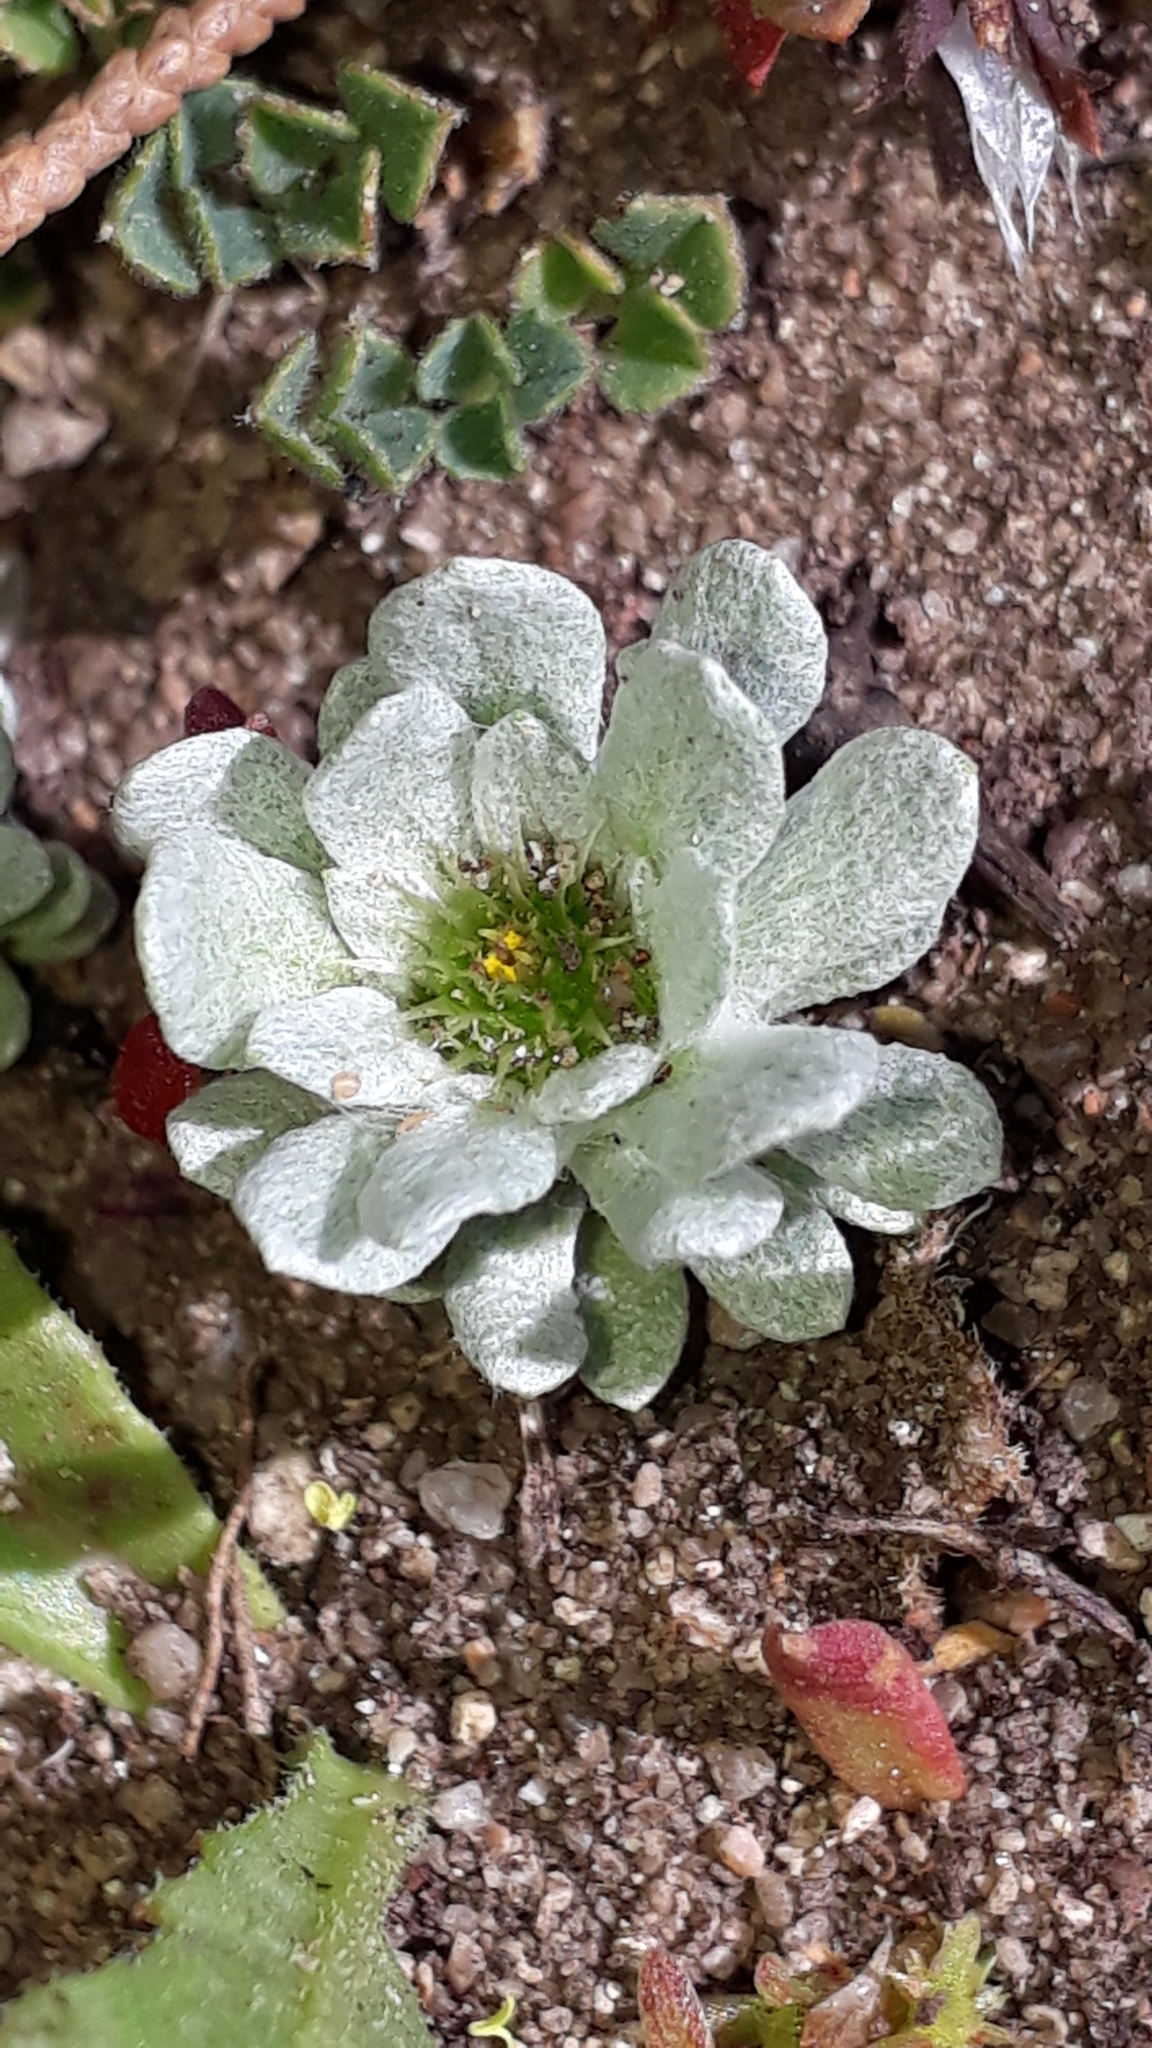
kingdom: Plantae
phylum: Tracheophyta
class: Magnoliopsida
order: Asterales
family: Asteraceae
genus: Filago
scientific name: Filago pygmaea
